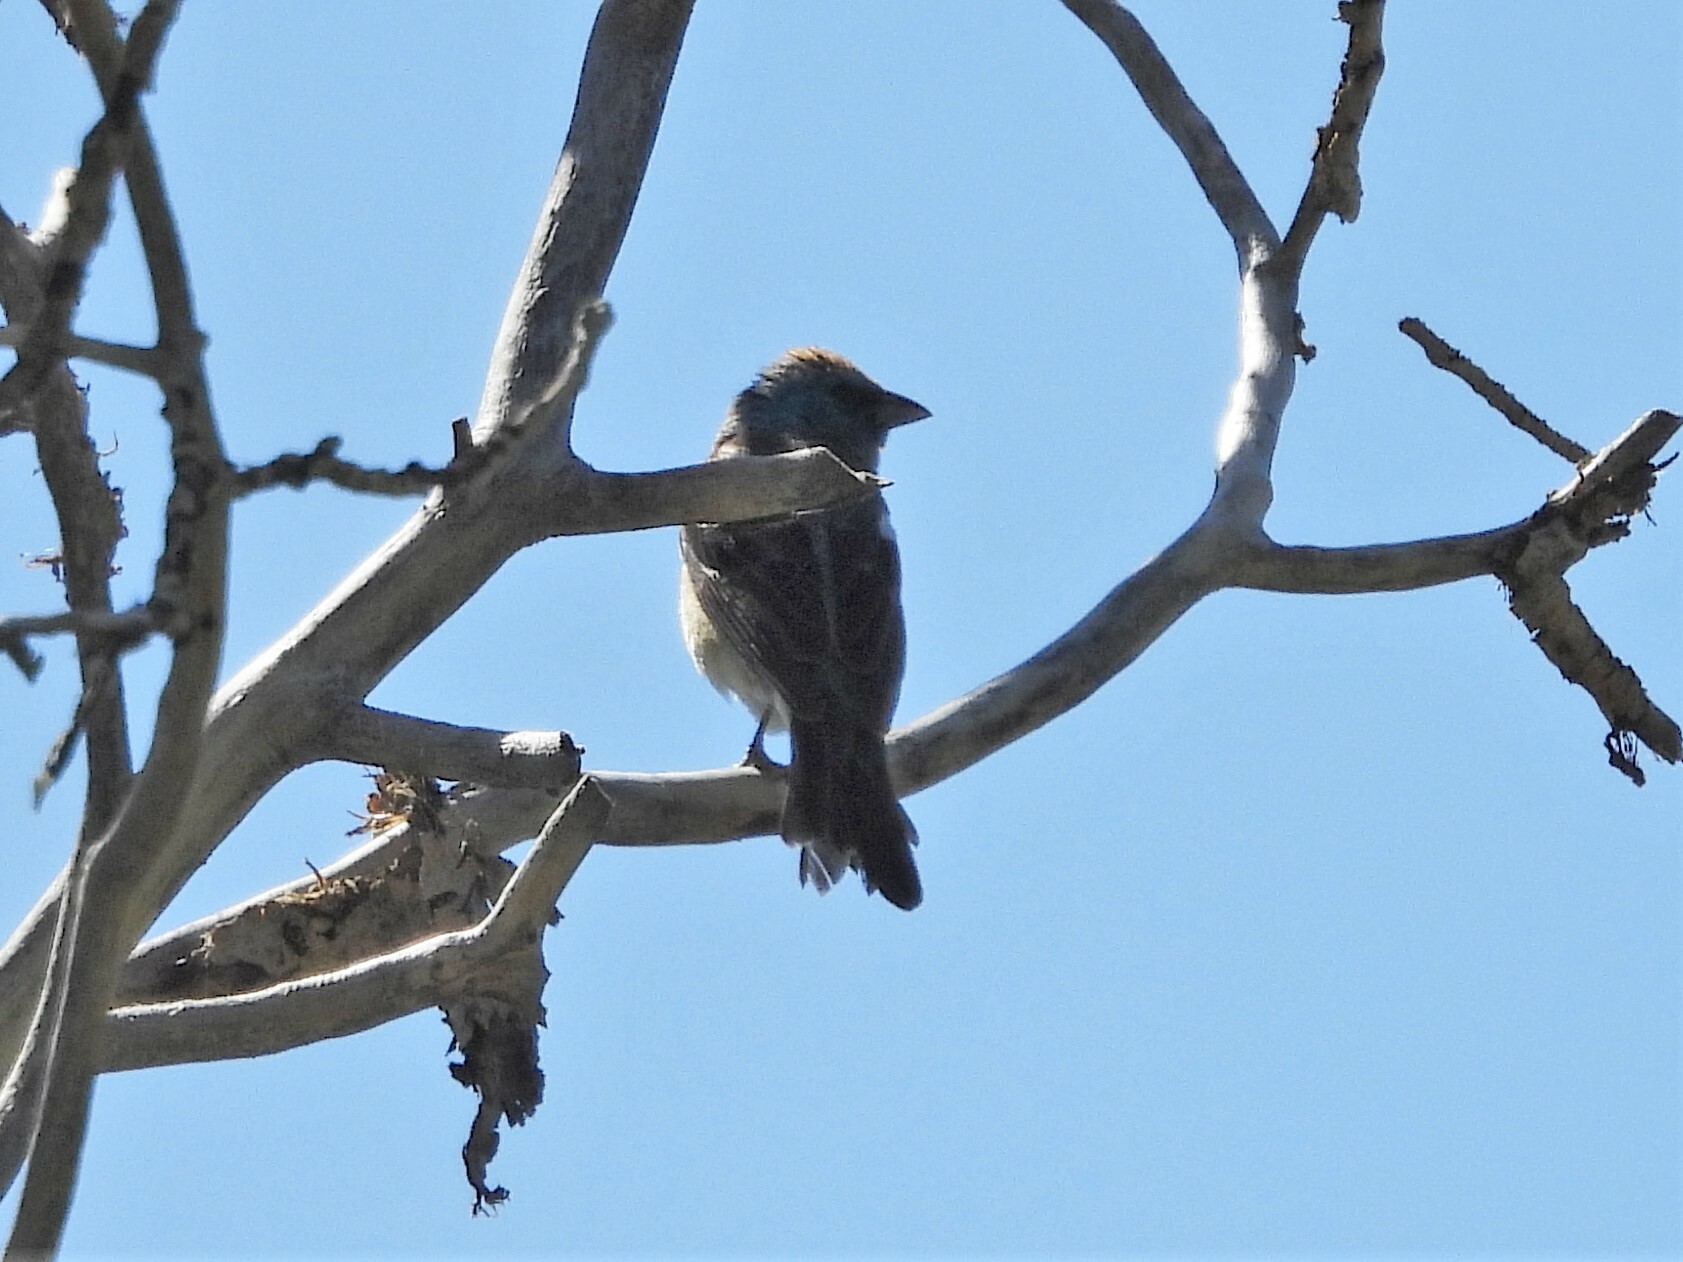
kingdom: Animalia
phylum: Chordata
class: Aves
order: Passeriformes
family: Cardinalidae
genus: Passerina
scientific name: Passerina amoena
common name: Lazuli bunting
